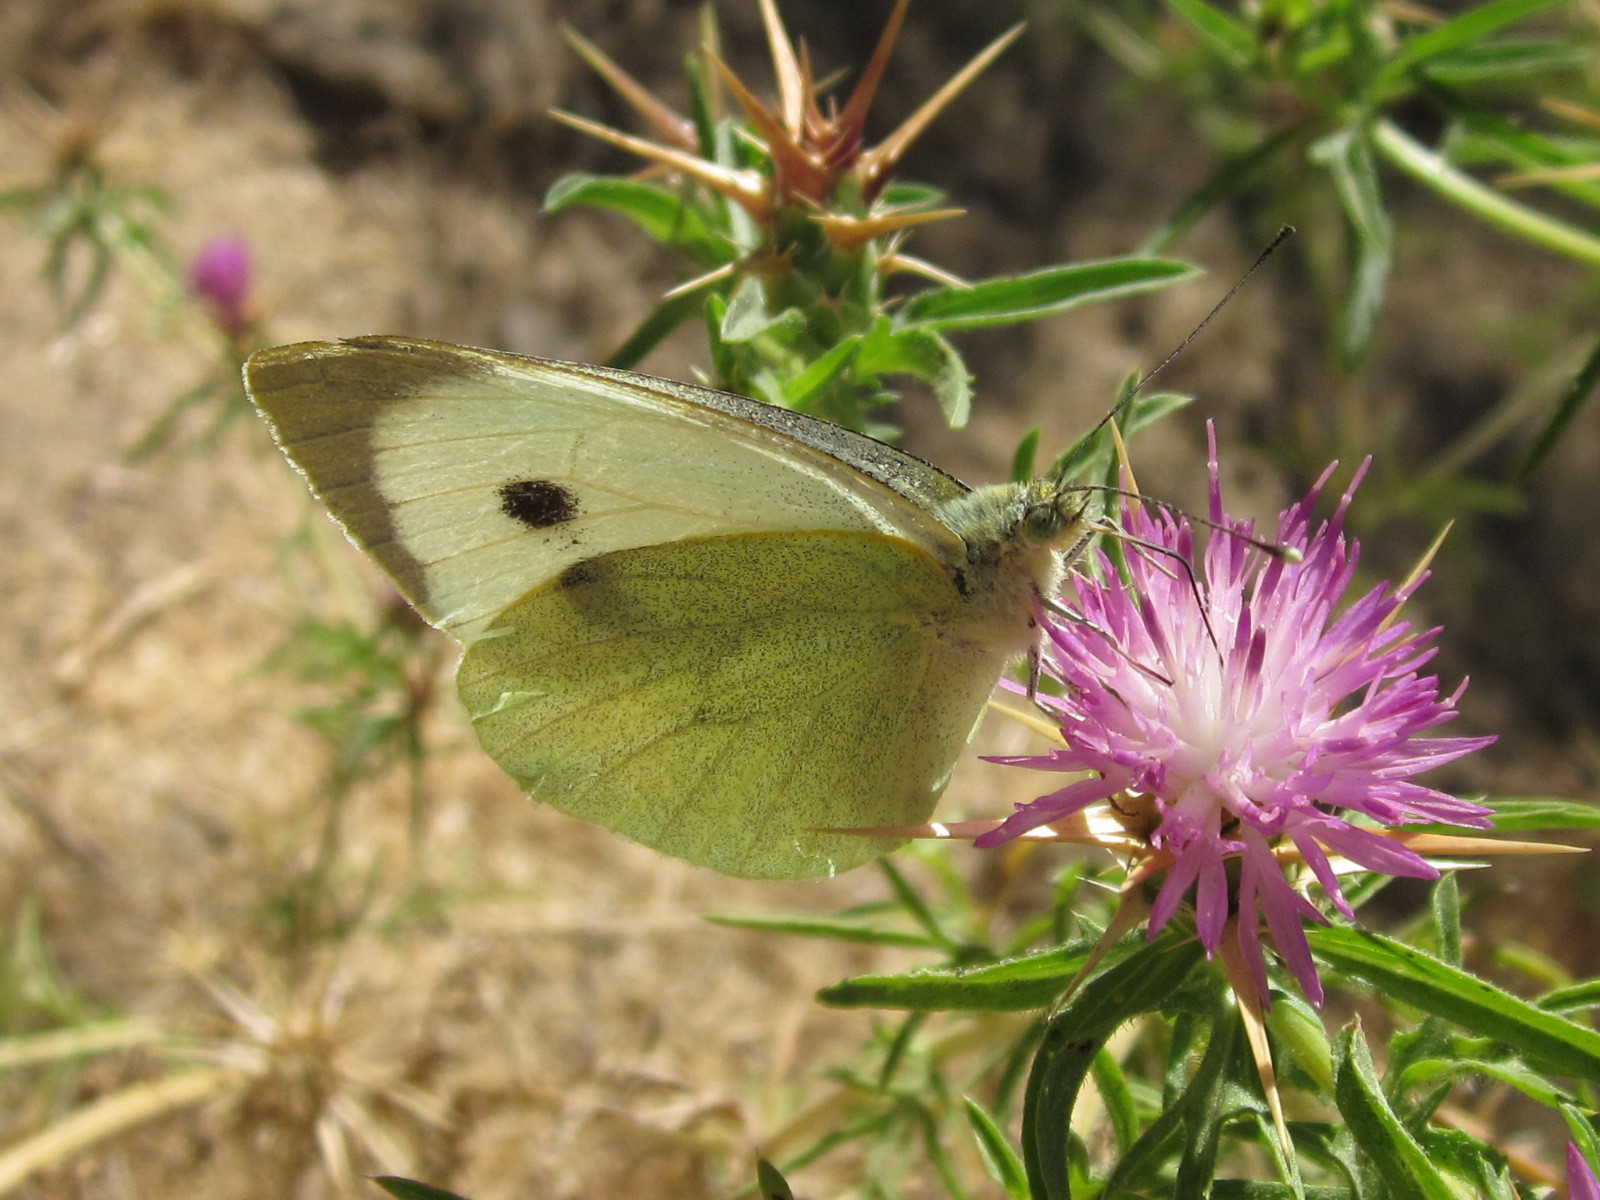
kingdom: Animalia
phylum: Arthropoda
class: Insecta
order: Lepidoptera
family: Pieridae
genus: Pieris
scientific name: Pieris brassicae
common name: Large white
